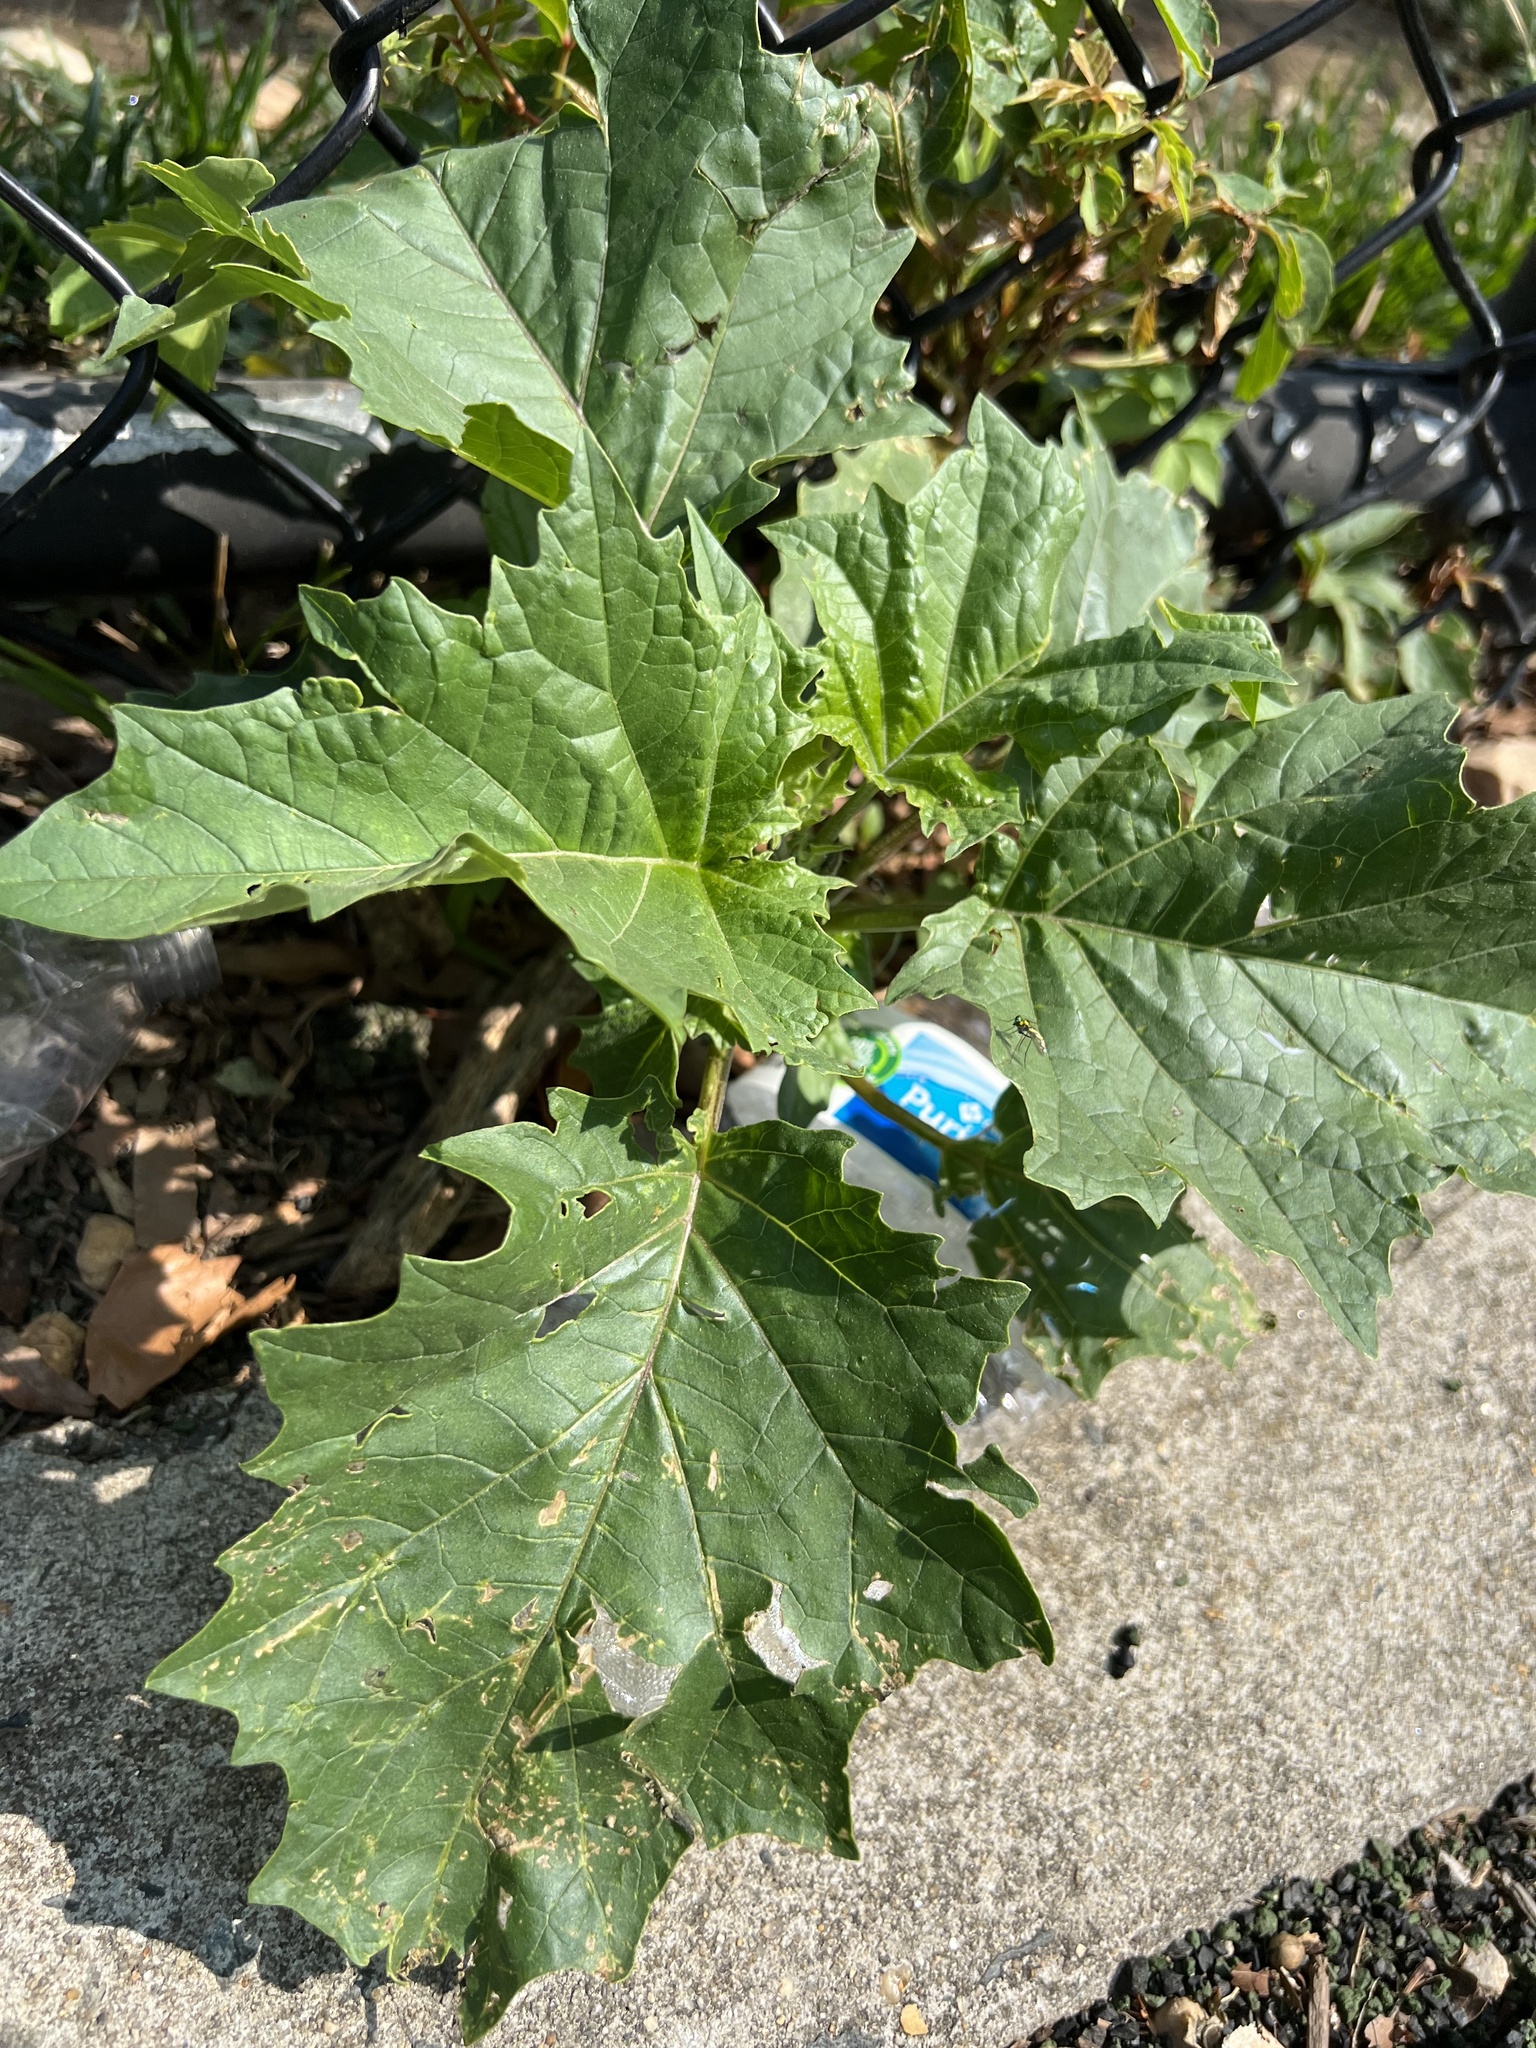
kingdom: Plantae
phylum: Tracheophyta
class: Magnoliopsida
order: Solanales
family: Solanaceae
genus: Datura
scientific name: Datura stramonium
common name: Thorn-apple
